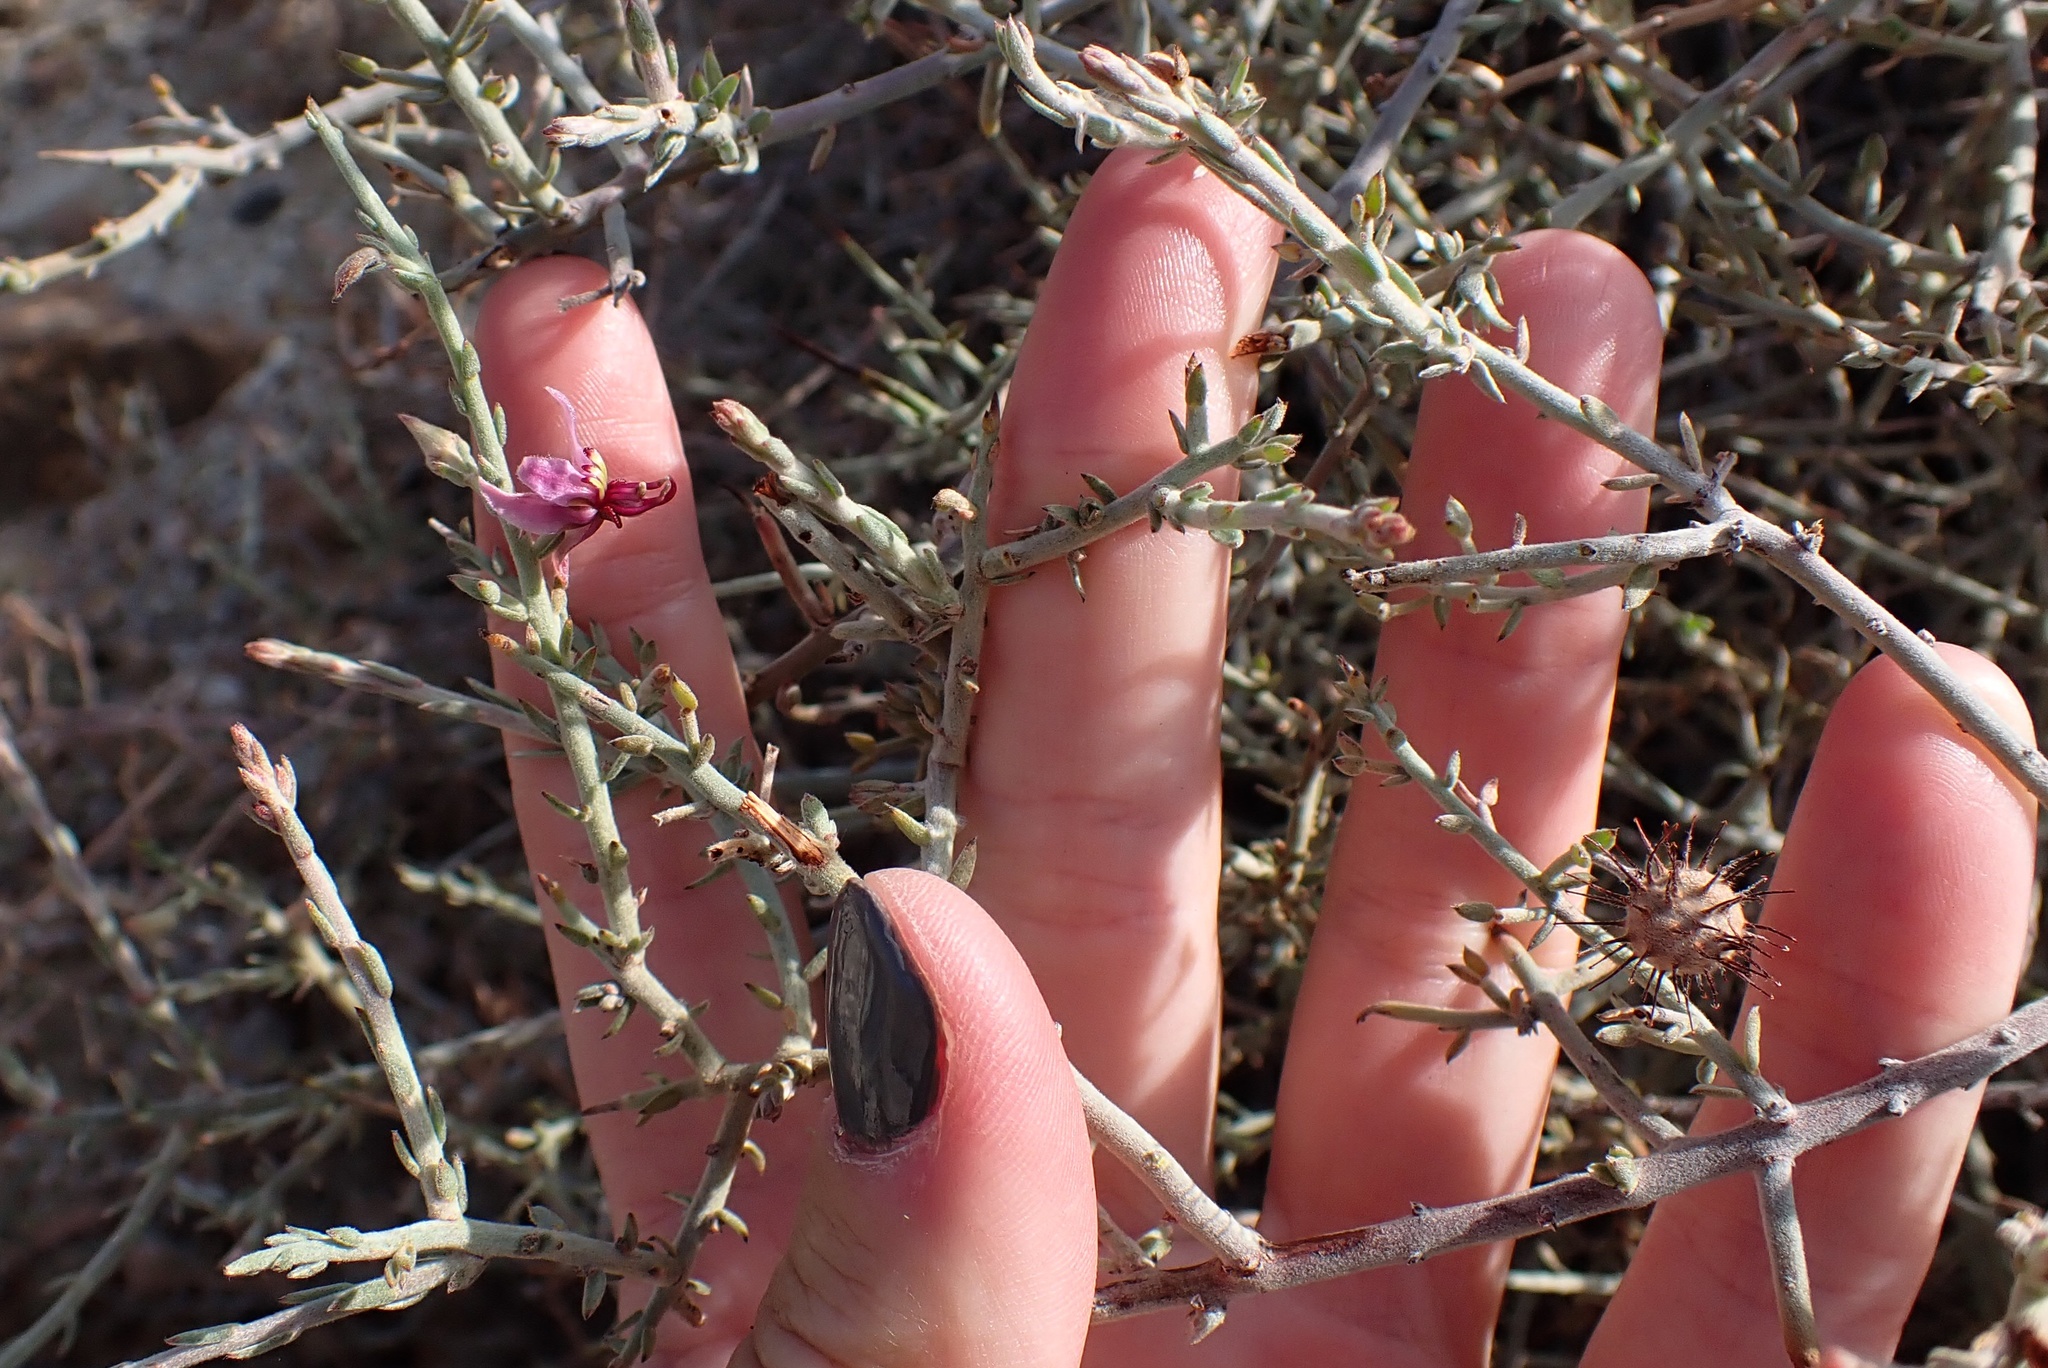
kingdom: Plantae
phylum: Tracheophyta
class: Magnoliopsida
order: Zygophyllales
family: Krameriaceae
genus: Krameria
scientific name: Krameria bicolor
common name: White ratany
